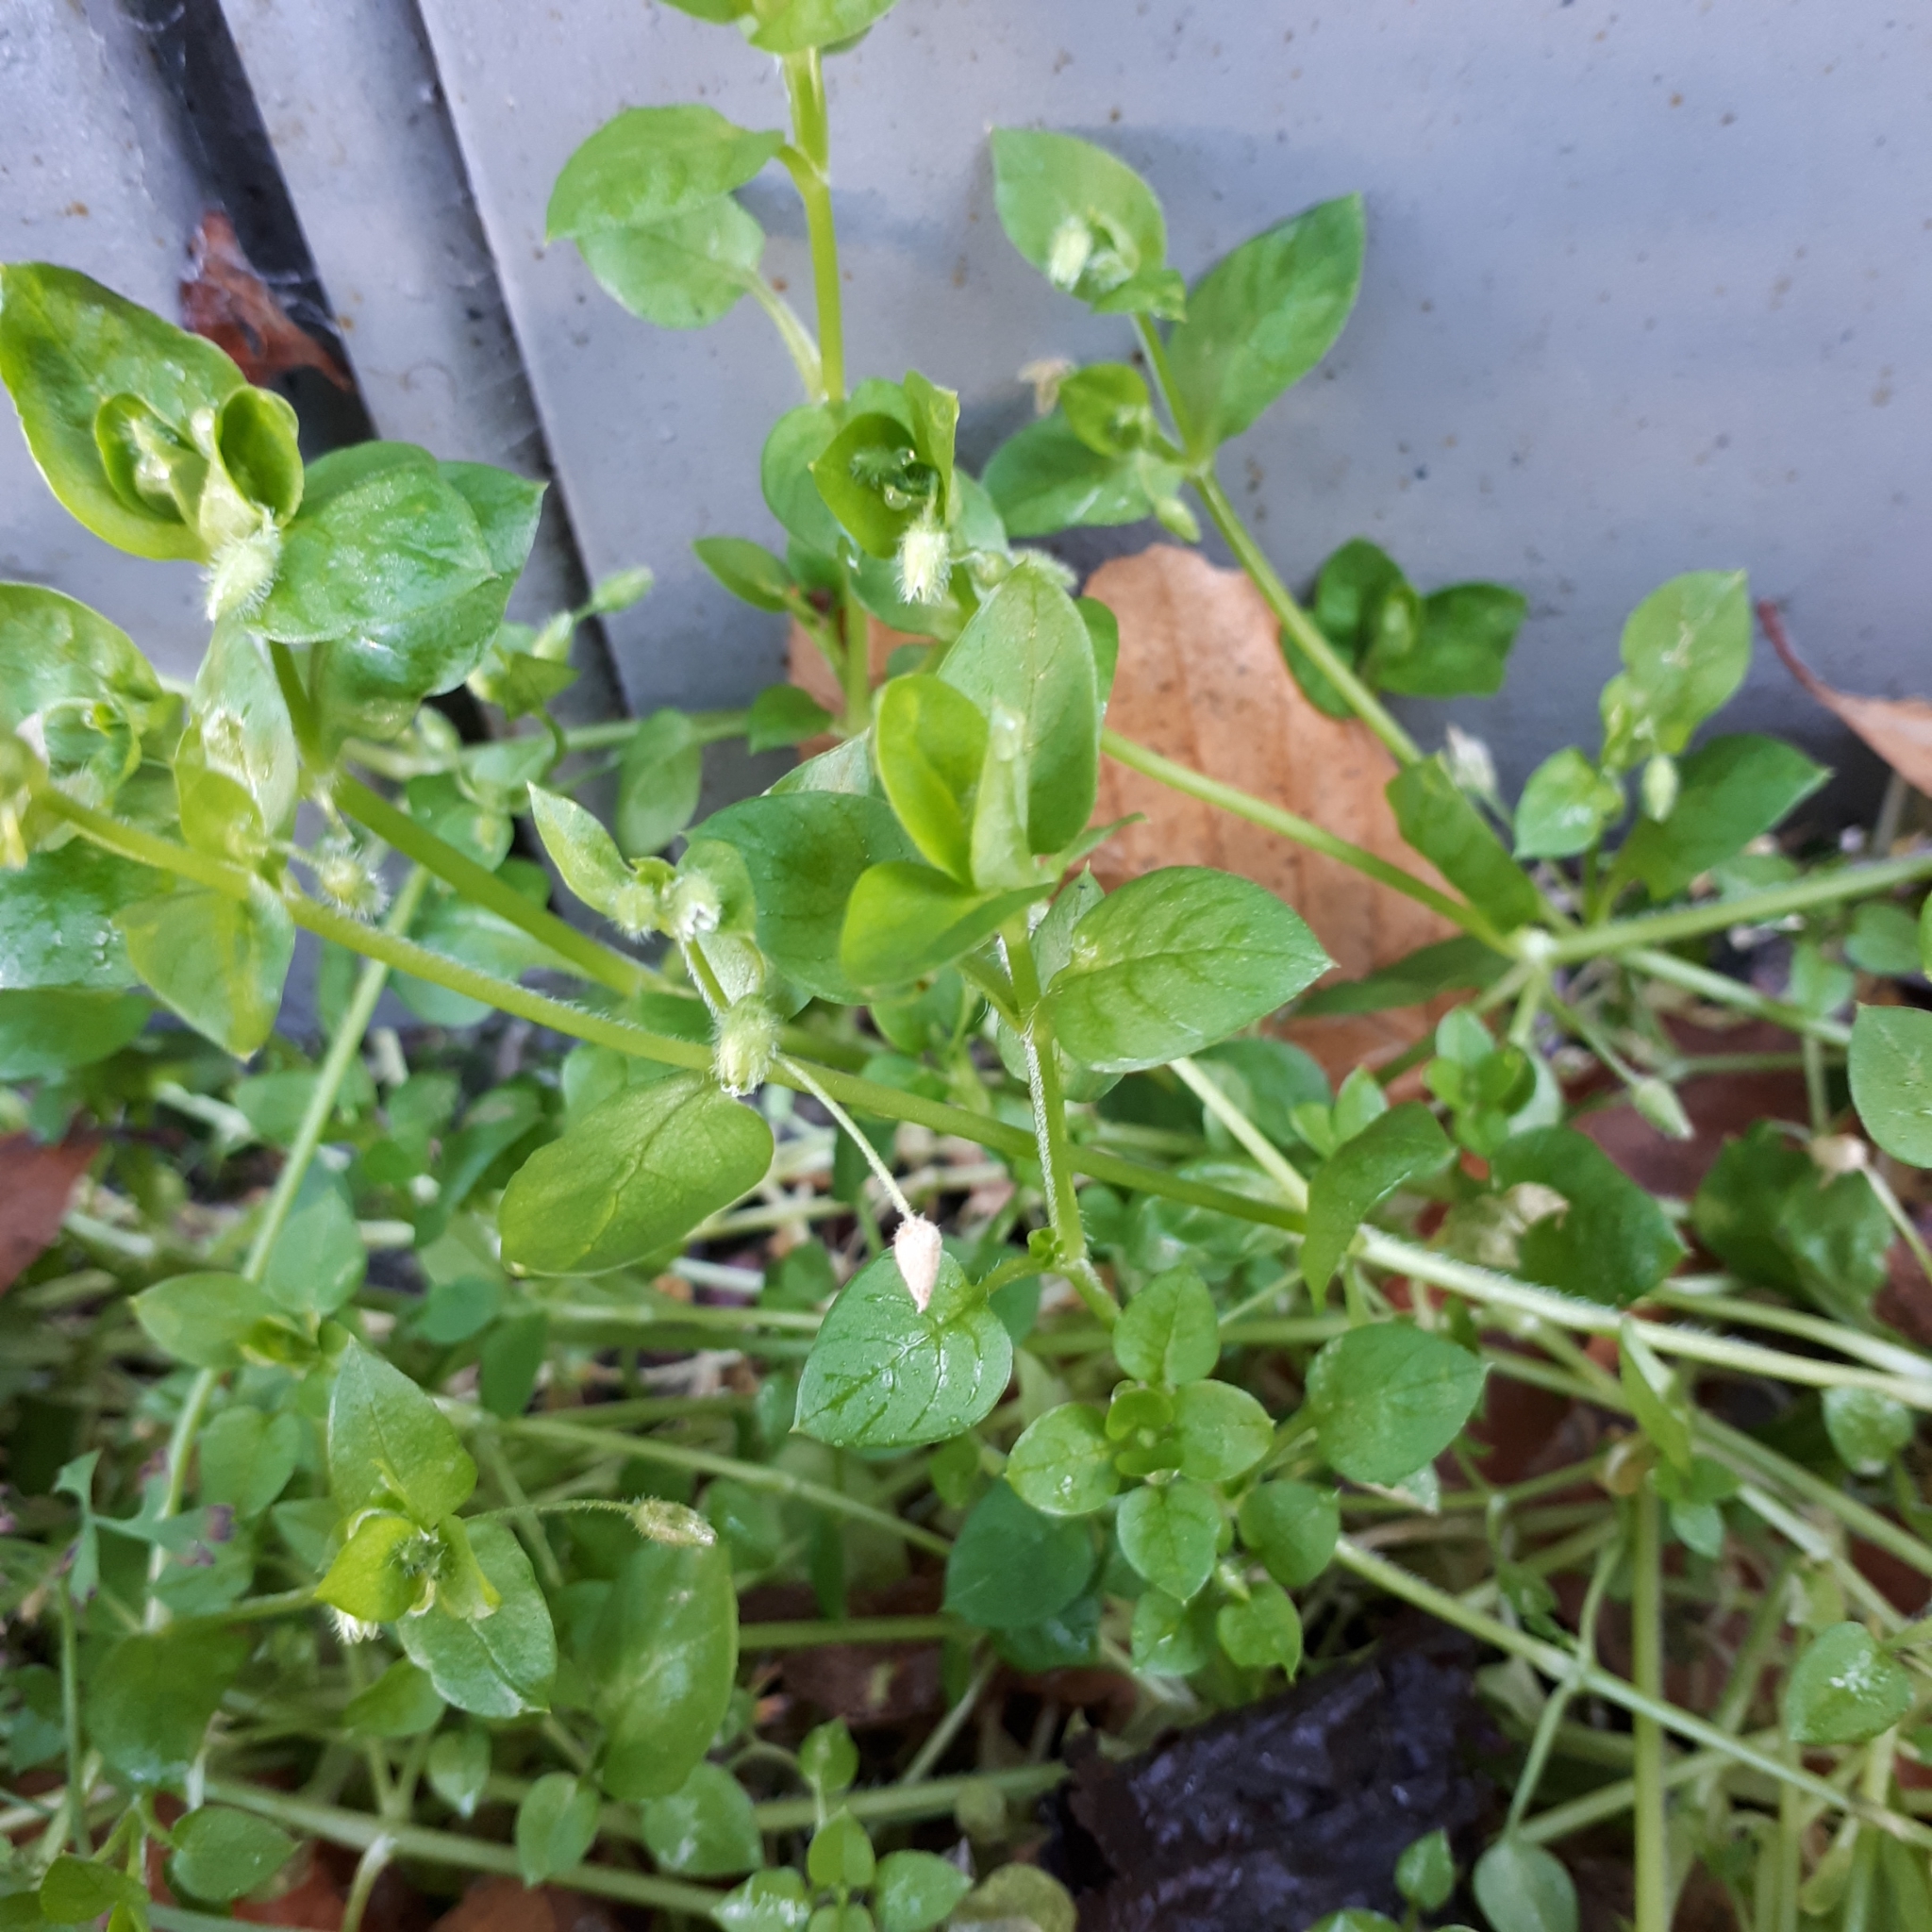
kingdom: Plantae
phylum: Tracheophyta
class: Magnoliopsida
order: Caryophyllales
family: Caryophyllaceae
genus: Stellaria
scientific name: Stellaria media
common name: Common chickweed
